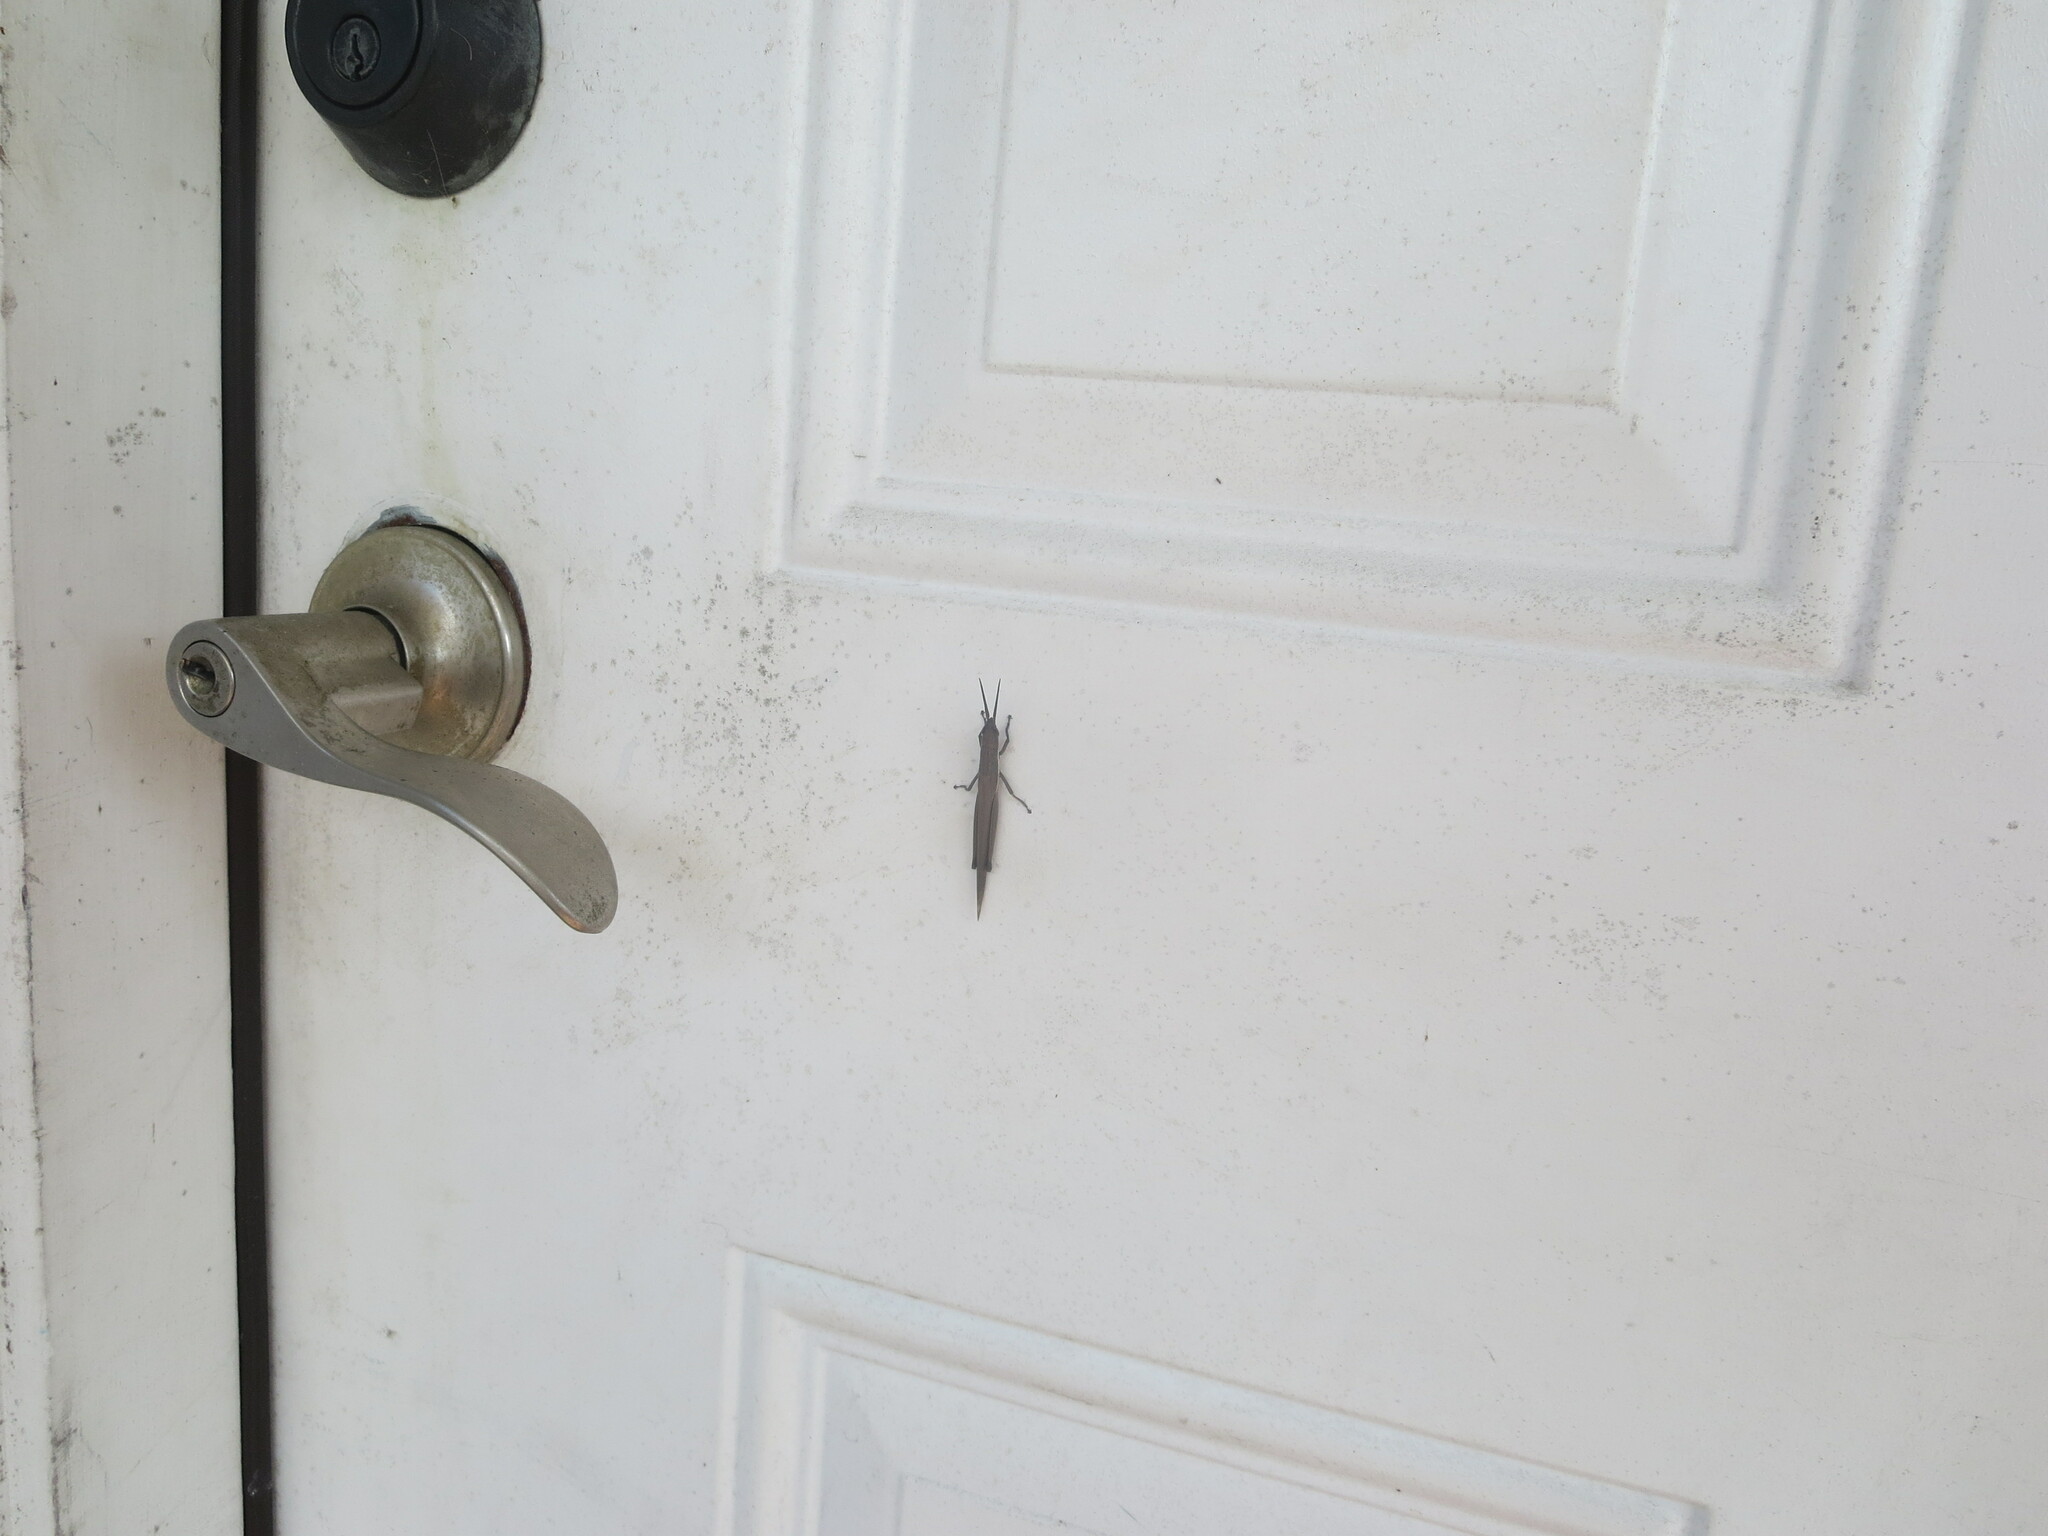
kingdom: Animalia
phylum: Arthropoda
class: Insecta
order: Orthoptera
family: Acrididae
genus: Leptysma
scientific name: Leptysma marginicollis
